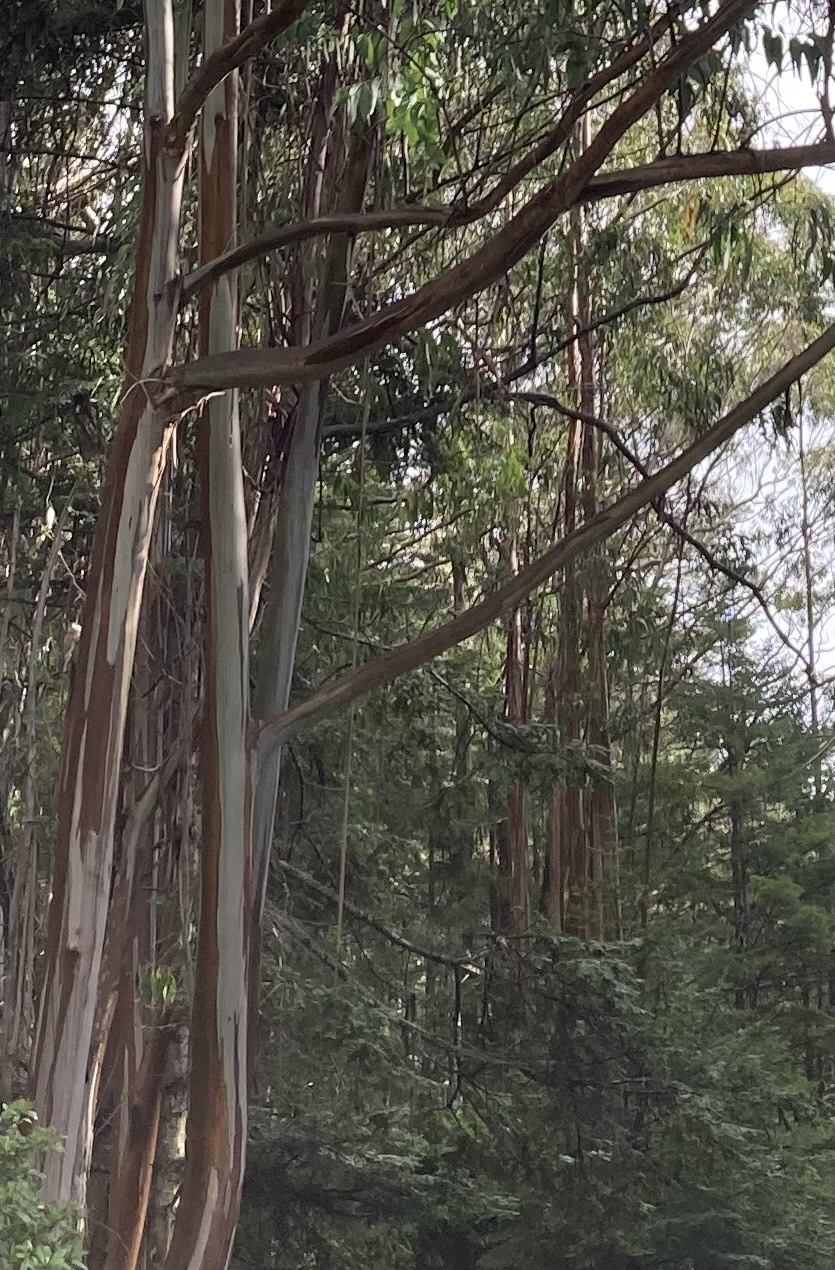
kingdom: Plantae
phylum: Tracheophyta
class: Magnoliopsida
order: Myrtales
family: Myrtaceae
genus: Eucalyptus
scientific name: Eucalyptus globulus
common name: Southern blue-gum
